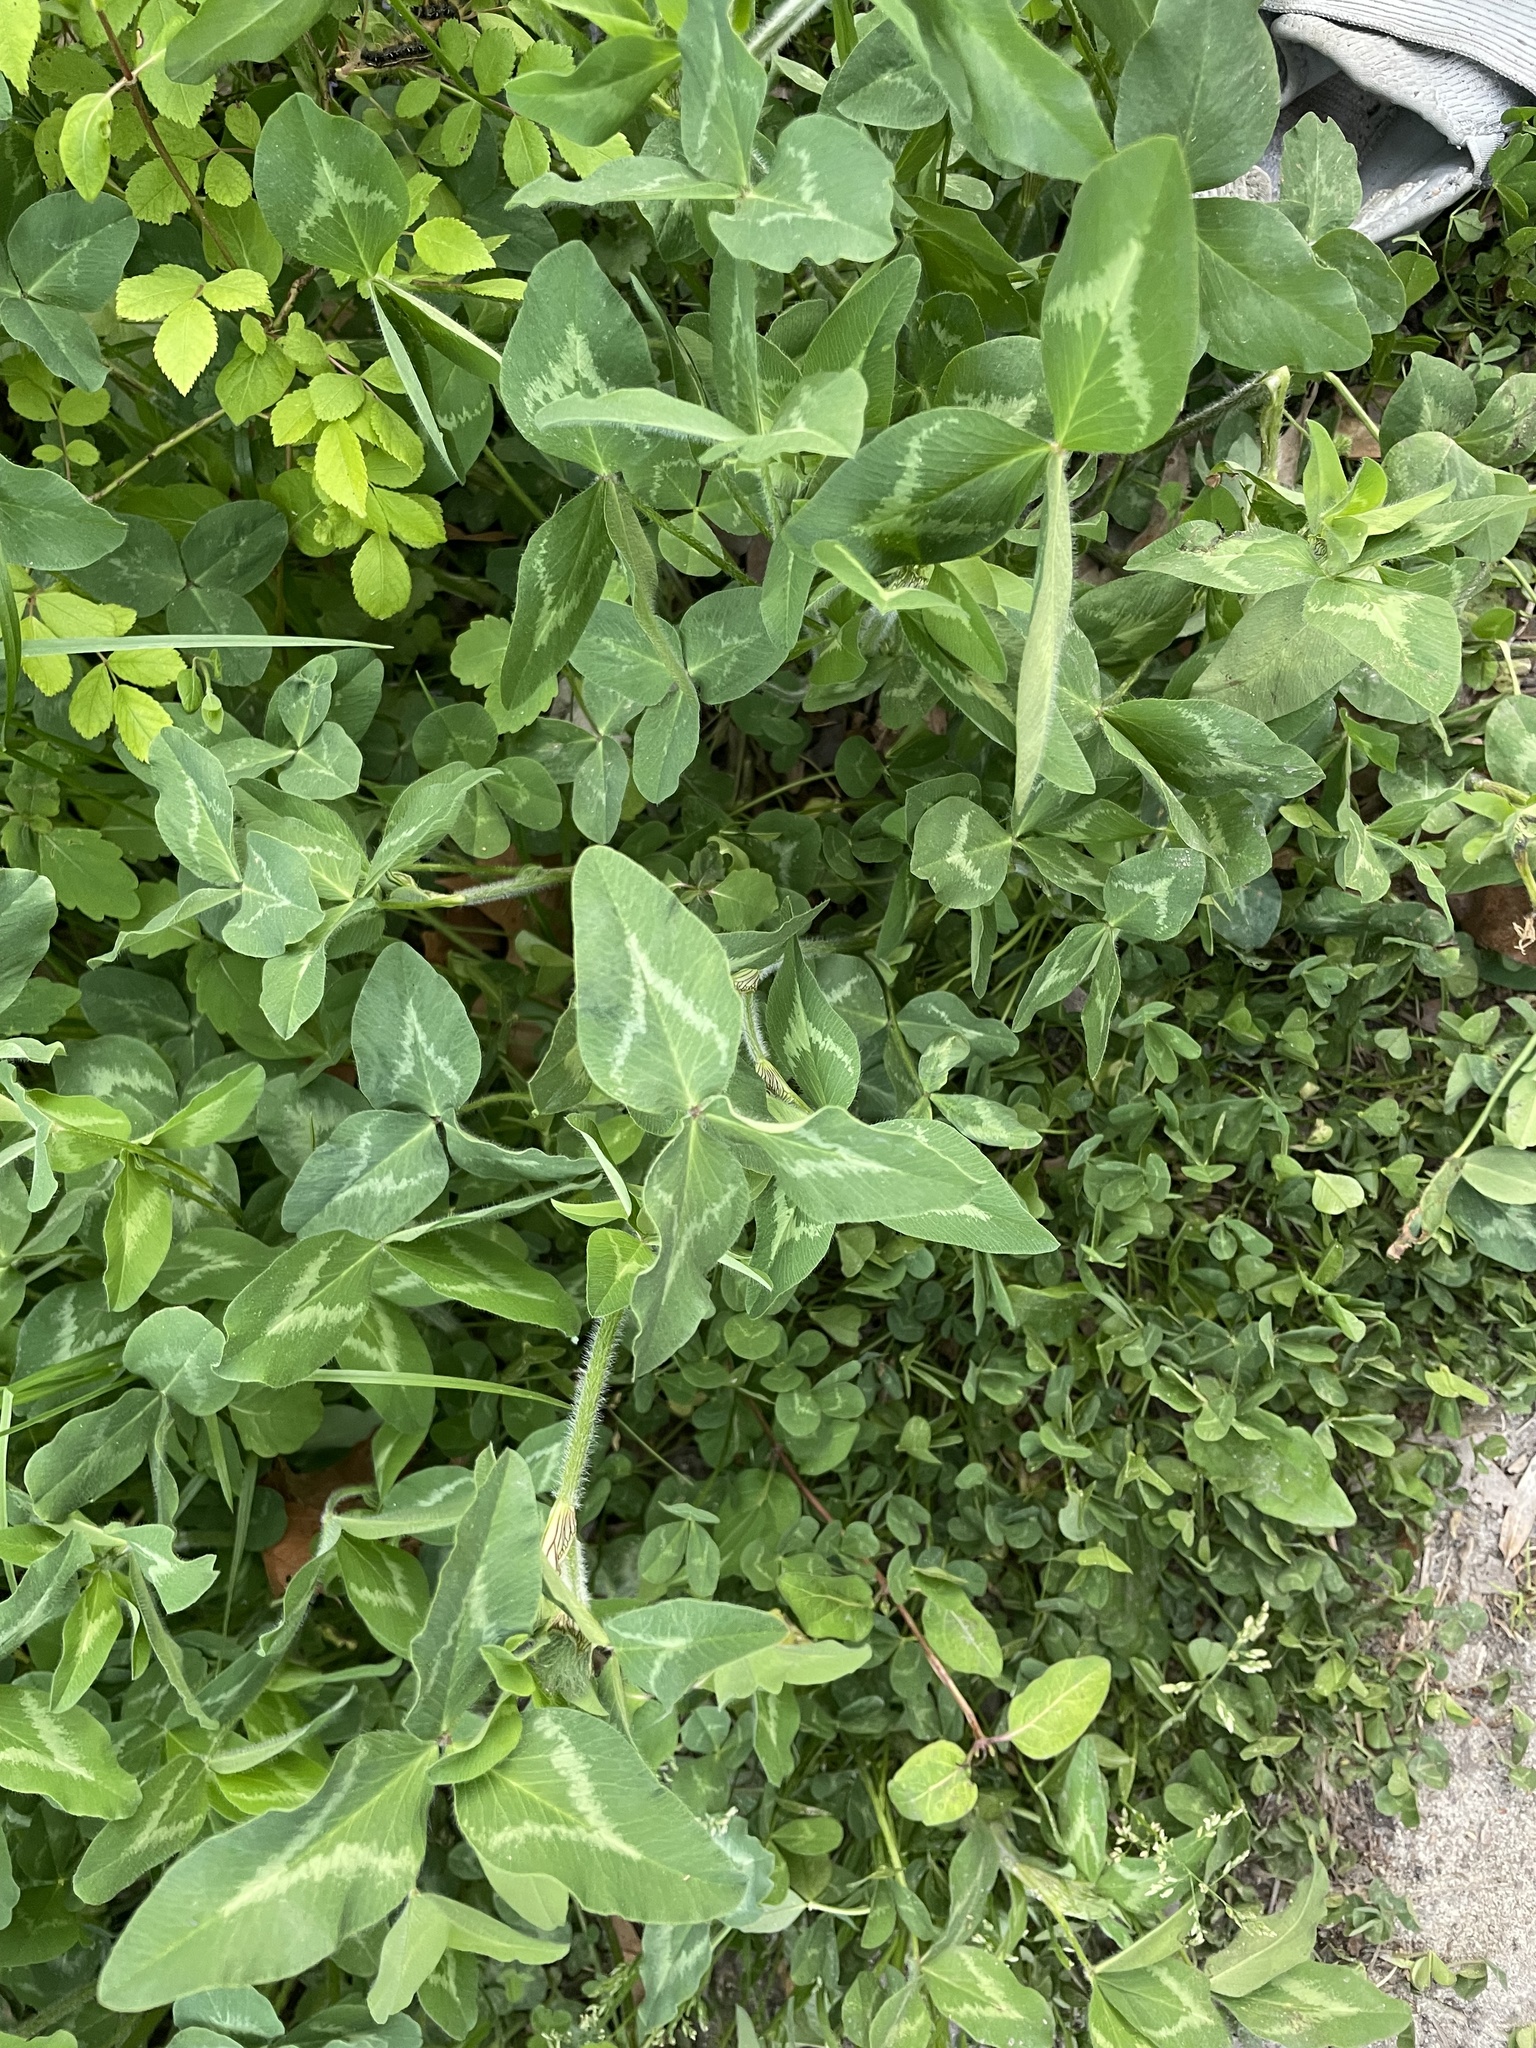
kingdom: Plantae
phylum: Tracheophyta
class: Magnoliopsida
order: Fabales
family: Fabaceae
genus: Trifolium
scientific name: Trifolium pratense
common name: Red clover
